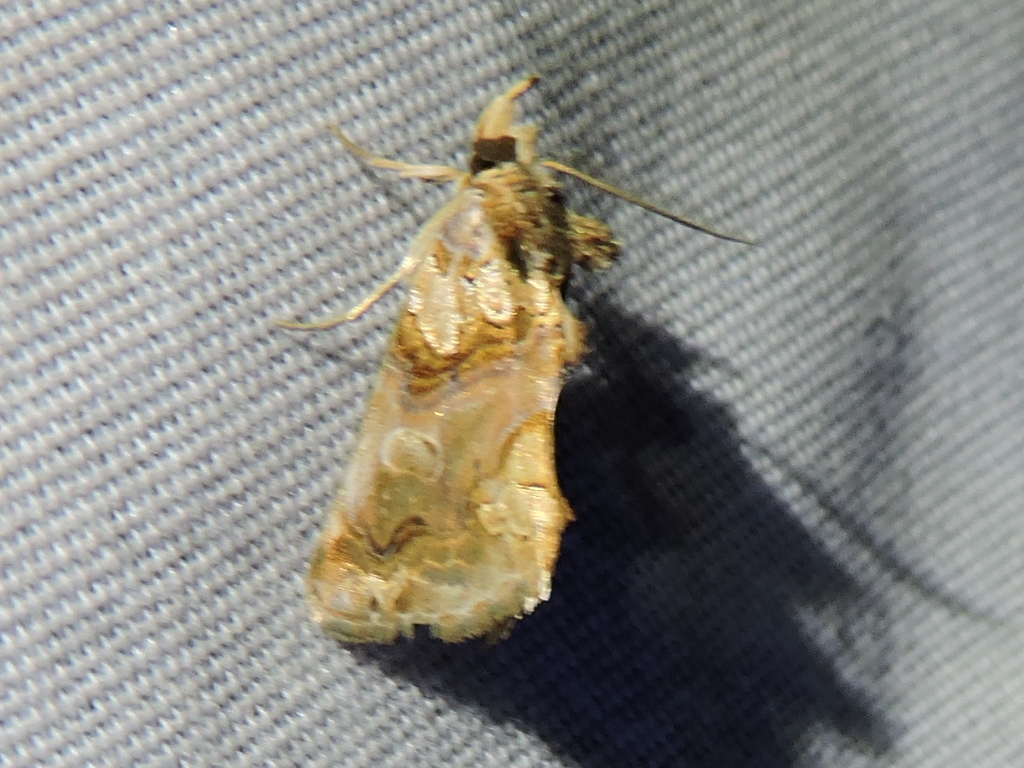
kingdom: Animalia
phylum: Arthropoda
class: Insecta
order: Lepidoptera
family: Erebidae
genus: Plusiodonta
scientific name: Plusiodonta compressipalpis
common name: Moonseed moth
